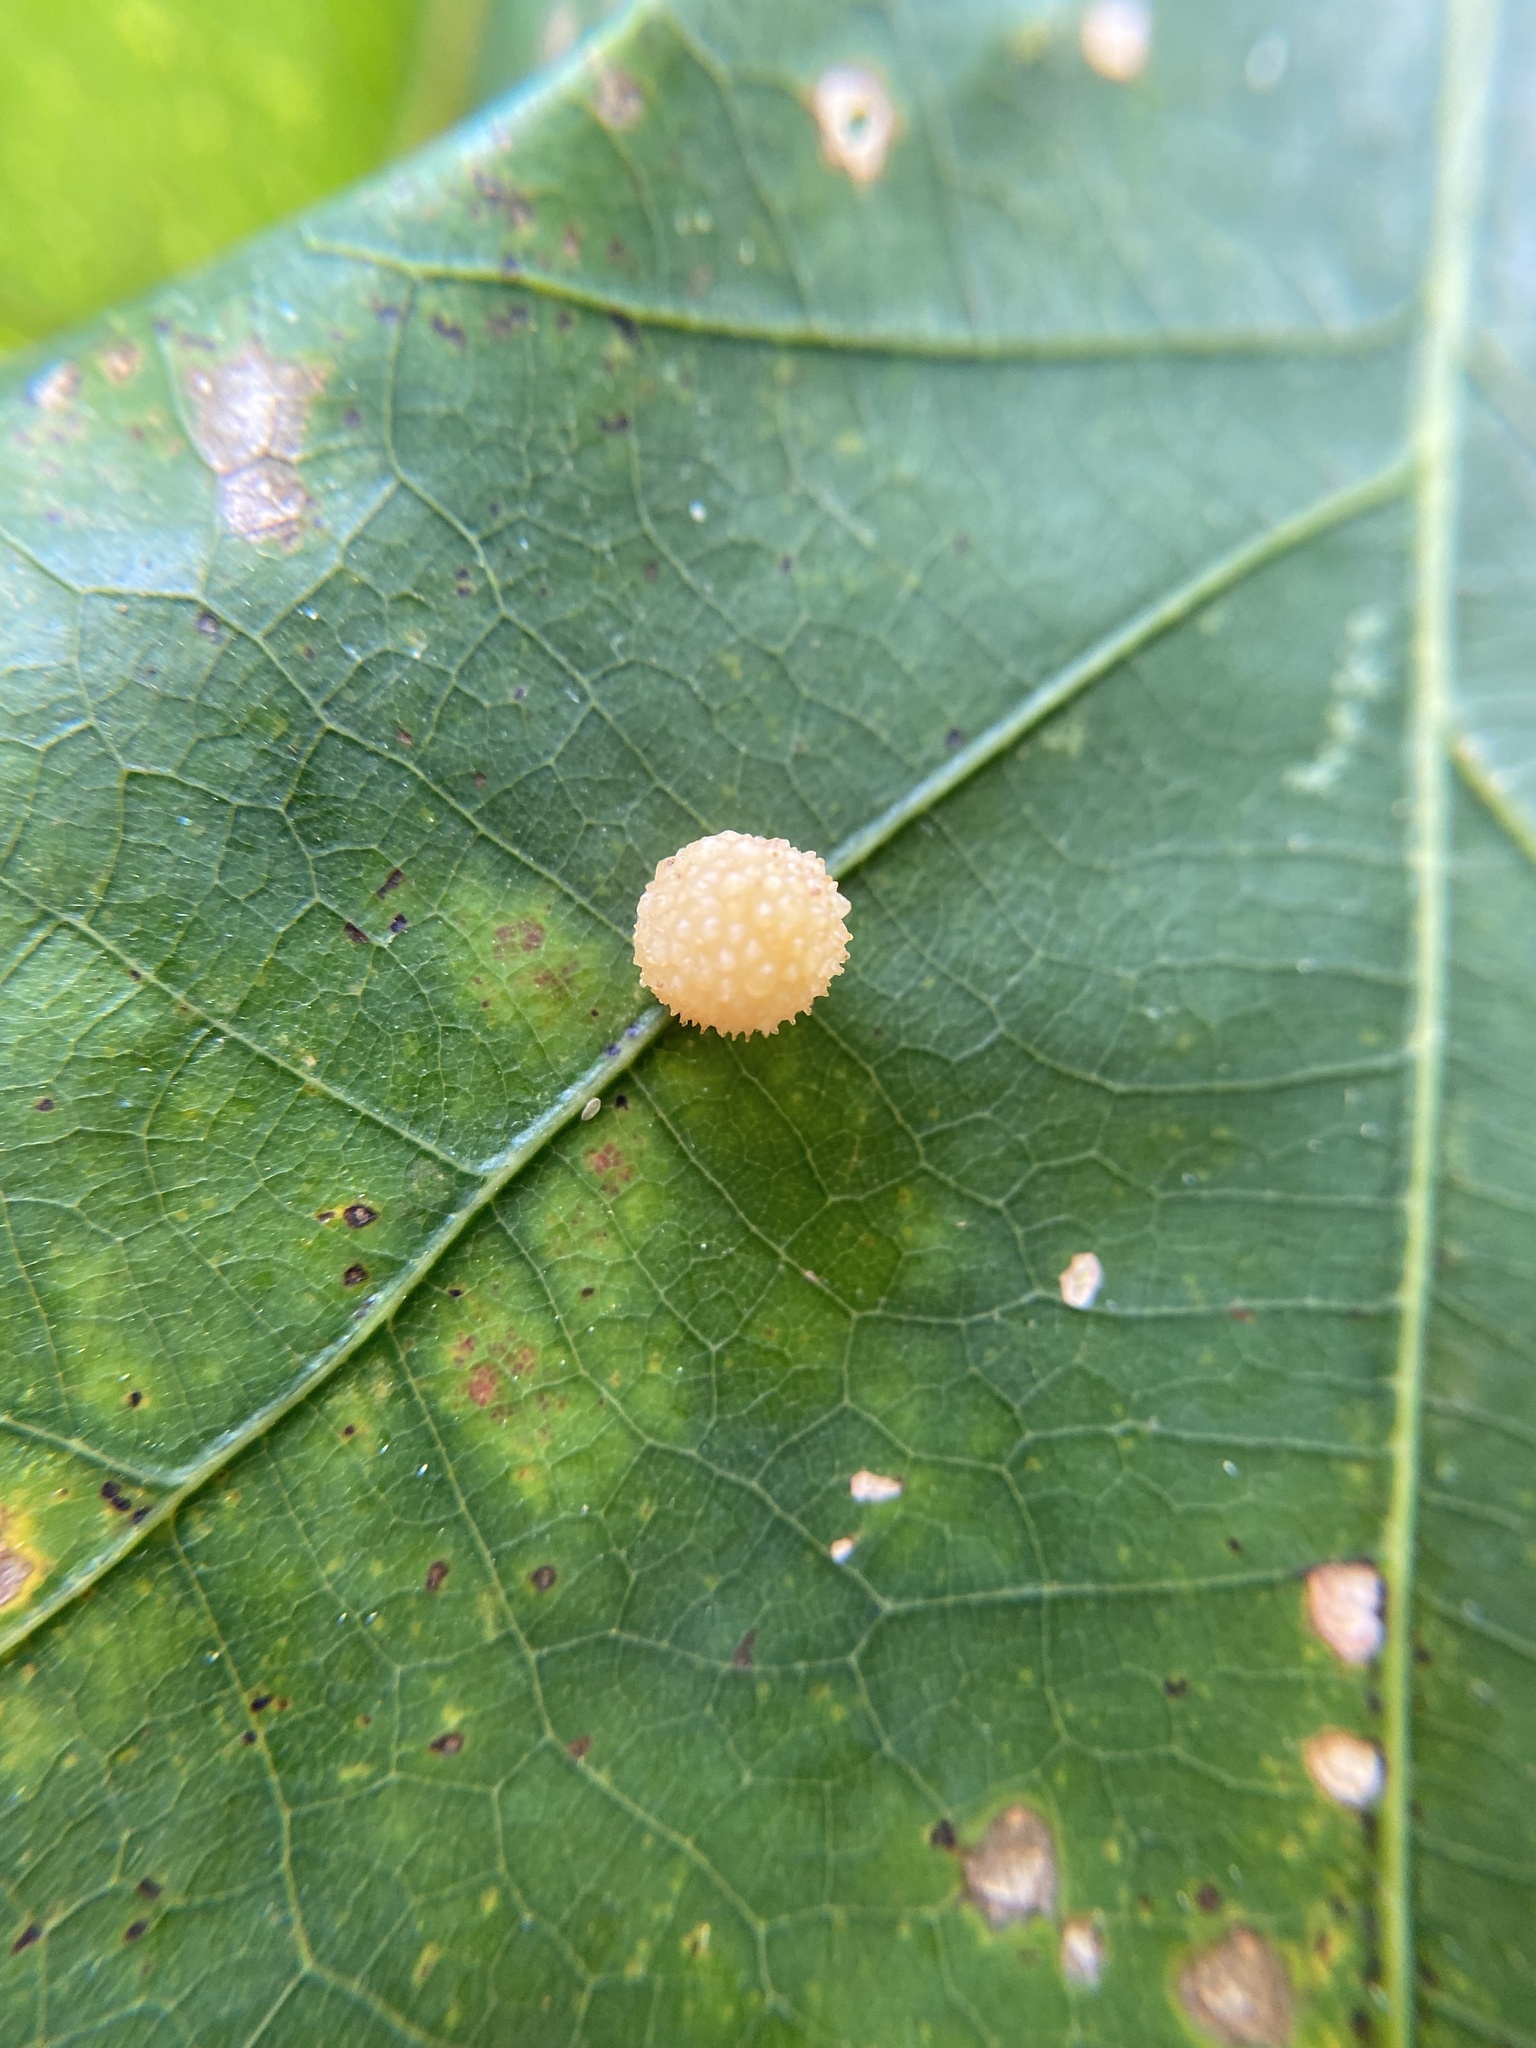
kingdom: Animalia
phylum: Arthropoda
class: Insecta
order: Hymenoptera
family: Cynipidae
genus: Acraspis
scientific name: Acraspis
